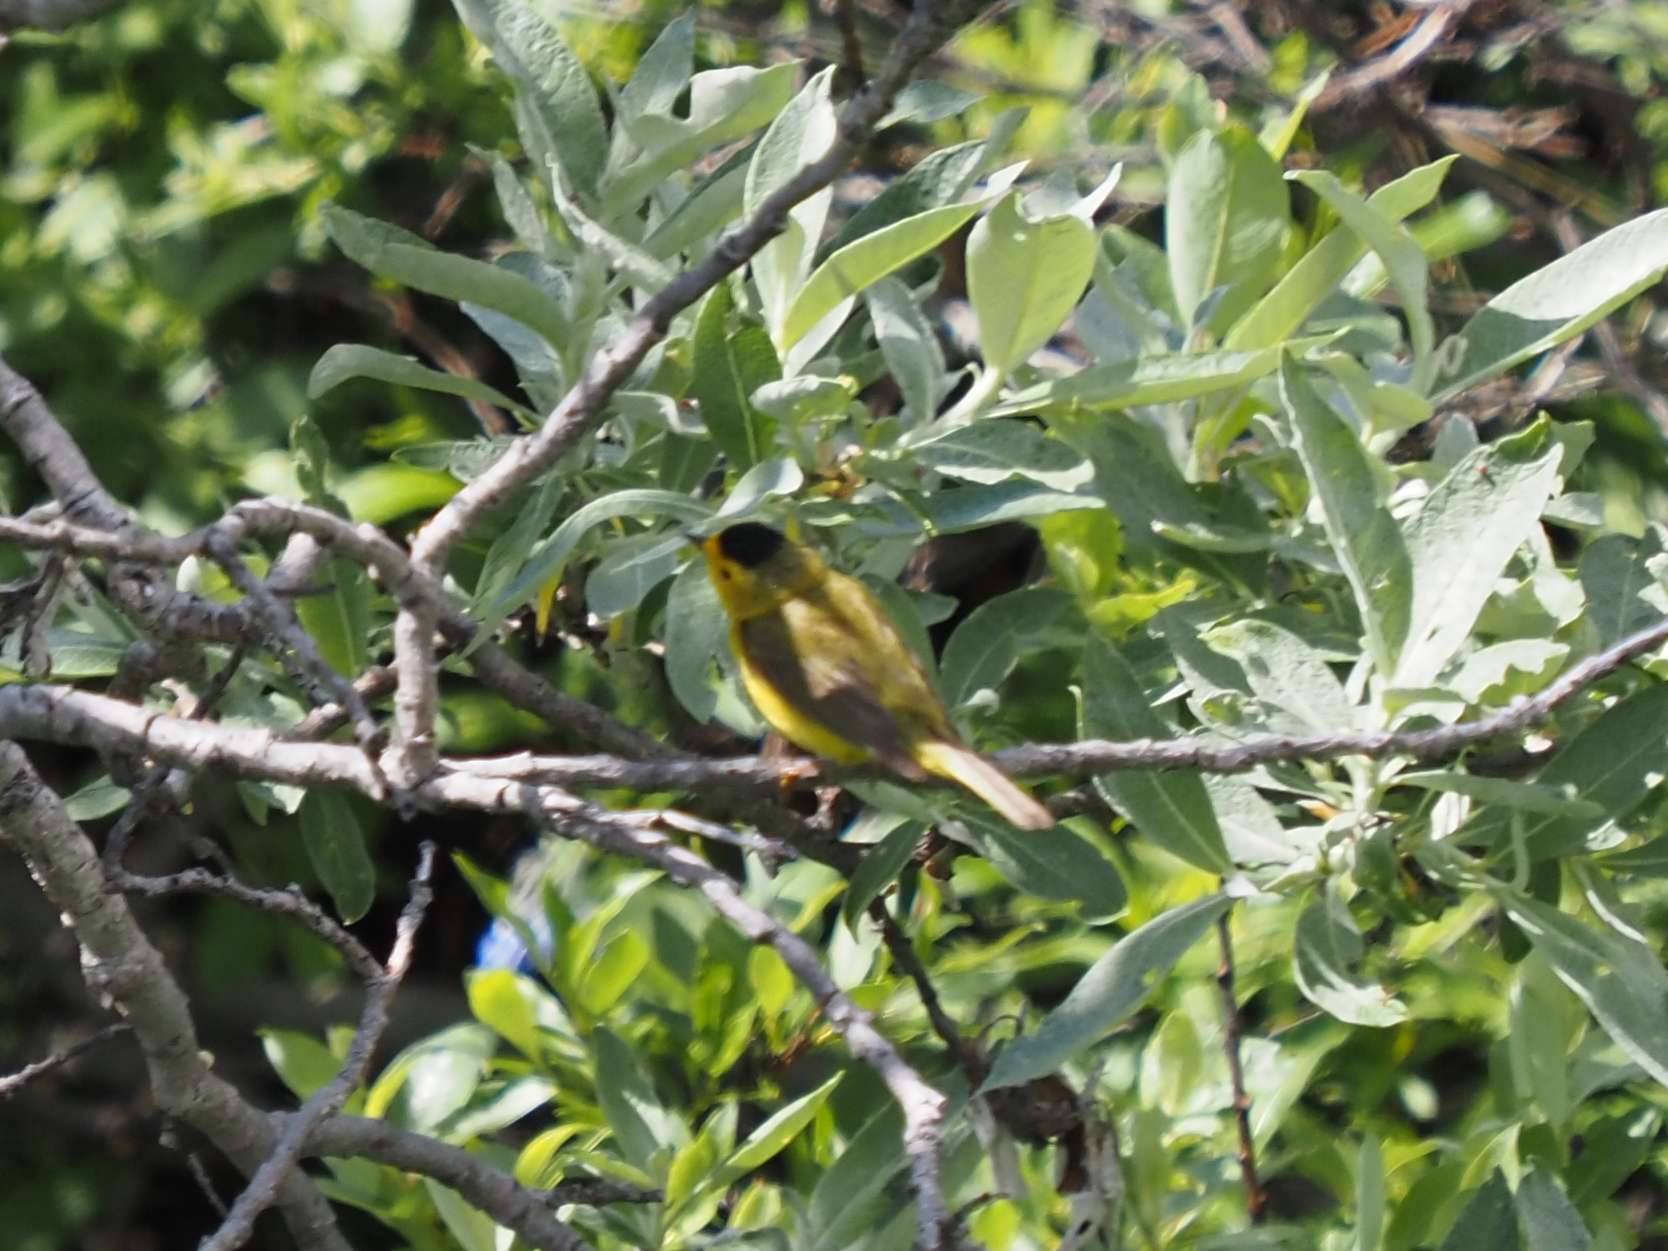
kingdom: Animalia
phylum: Chordata
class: Aves
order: Passeriformes
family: Parulidae
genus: Cardellina
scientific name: Cardellina pusilla
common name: Wilson's warbler
